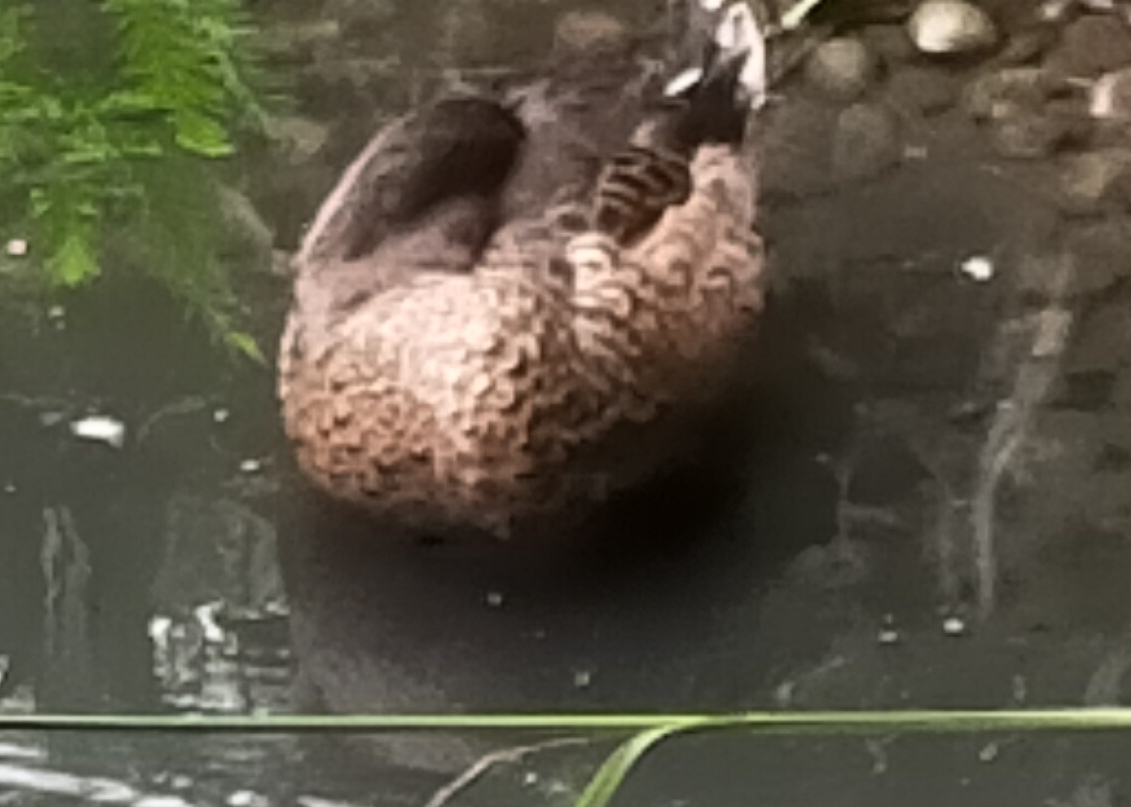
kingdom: Animalia
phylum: Chordata
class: Aves
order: Anseriformes
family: Anatidae
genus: Anas
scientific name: Anas platyrhynchos
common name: Mallard
